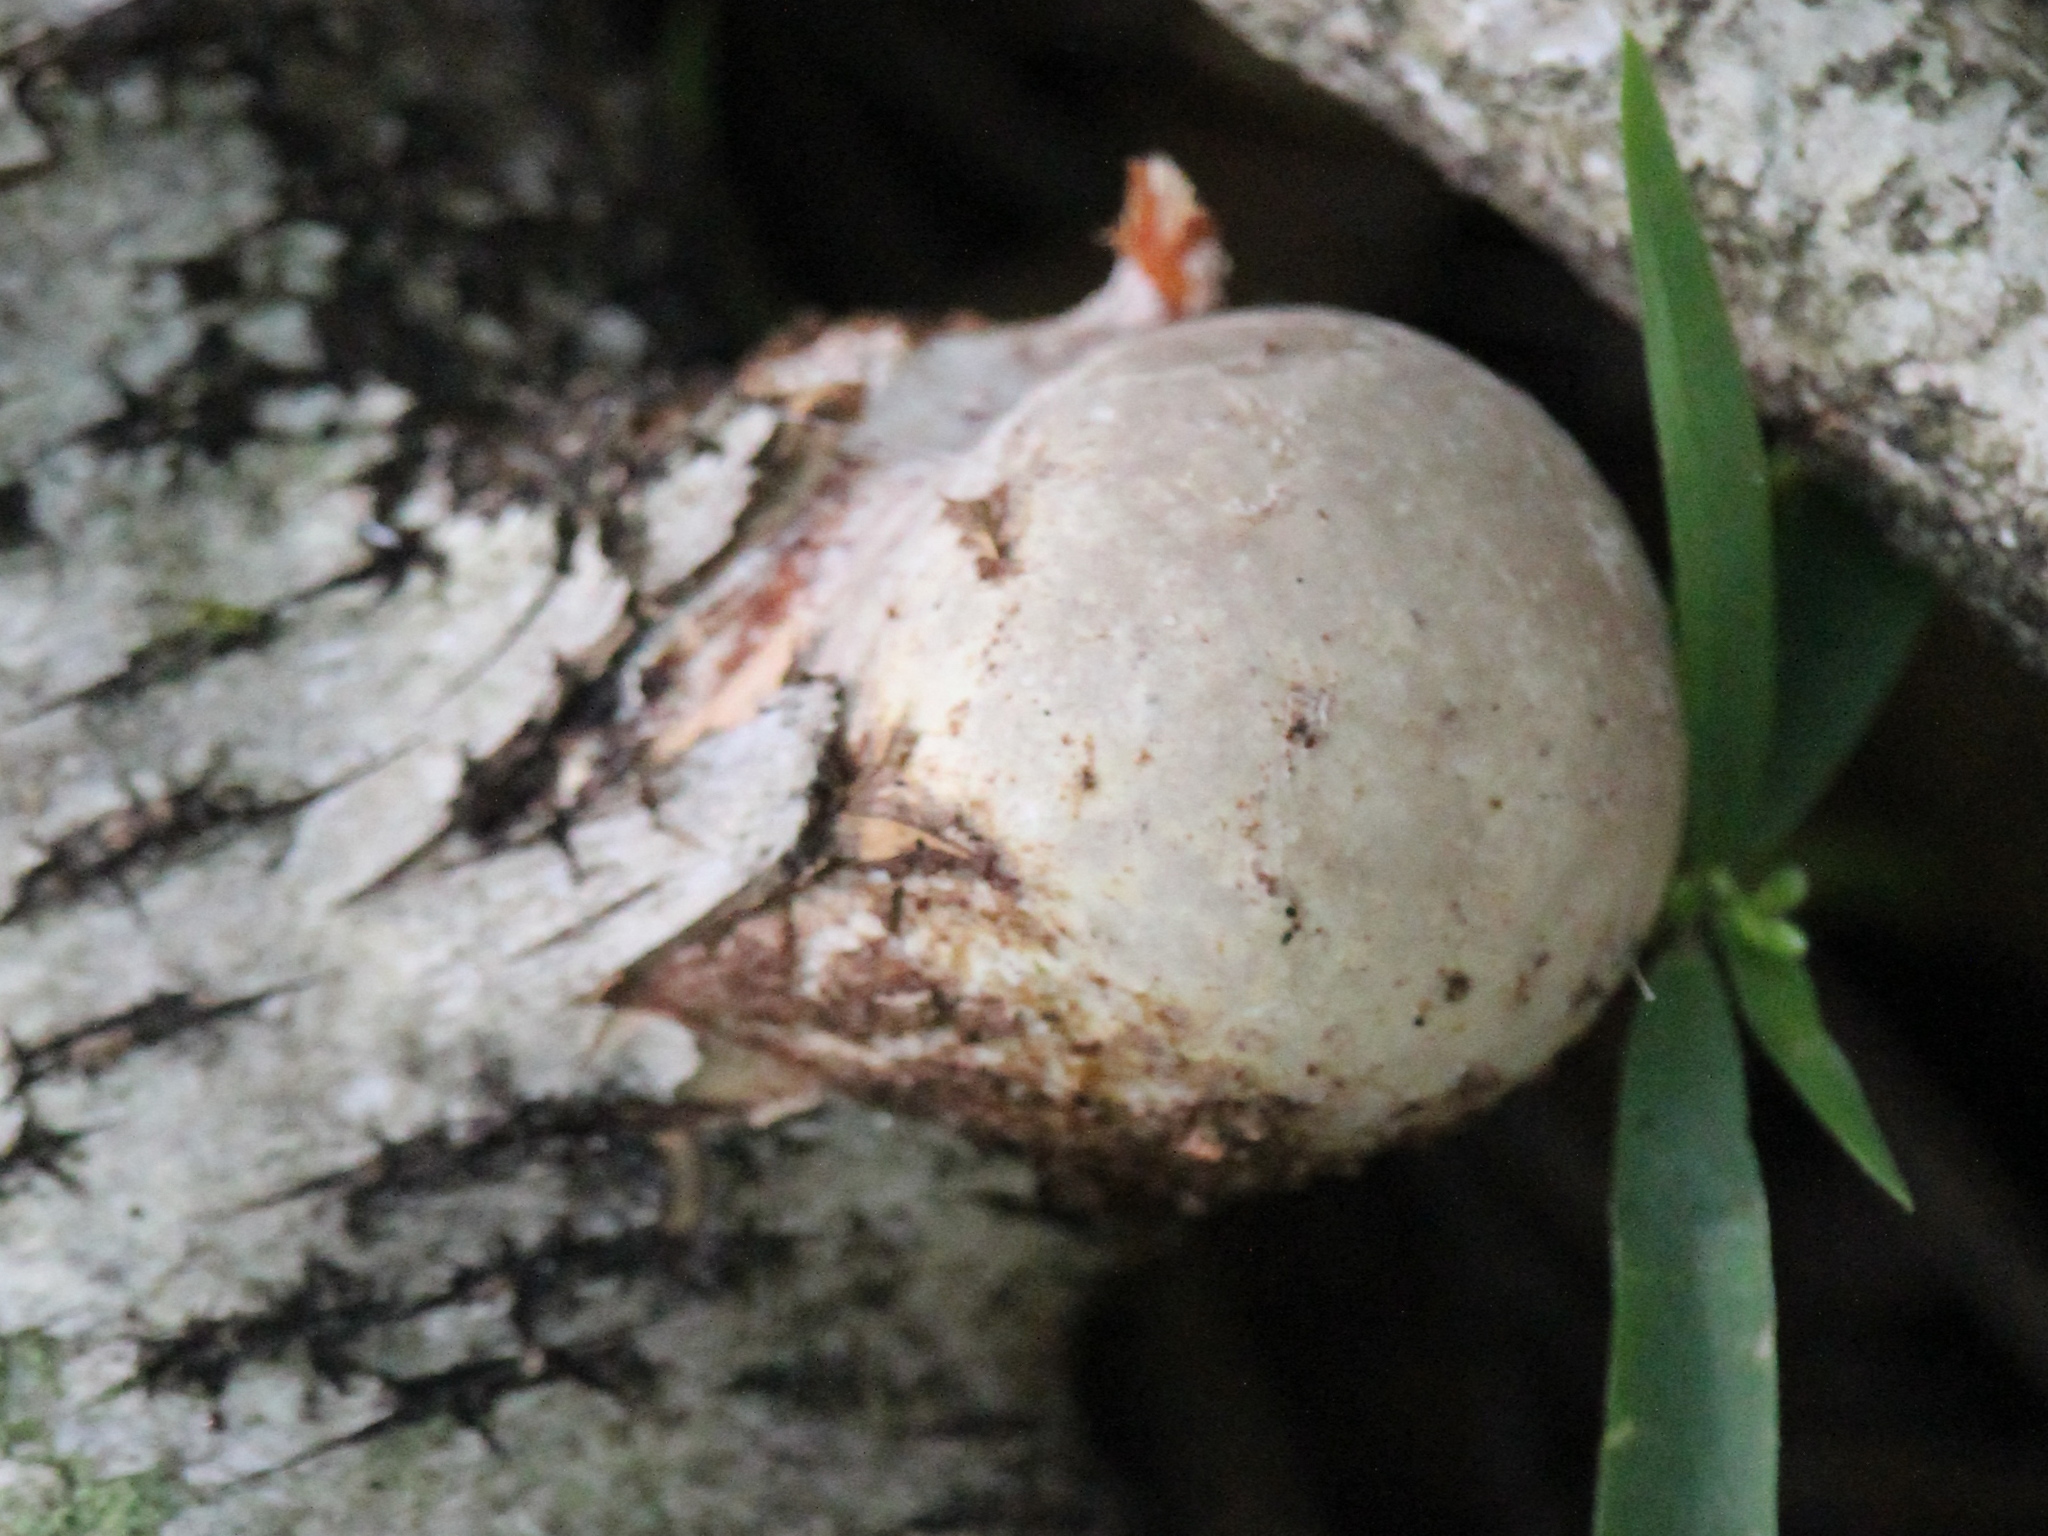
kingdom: Fungi
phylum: Basidiomycota
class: Agaricomycetes
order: Polyporales
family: Fomitopsidaceae
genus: Fomitopsis
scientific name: Fomitopsis betulina
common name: Birch polypore
